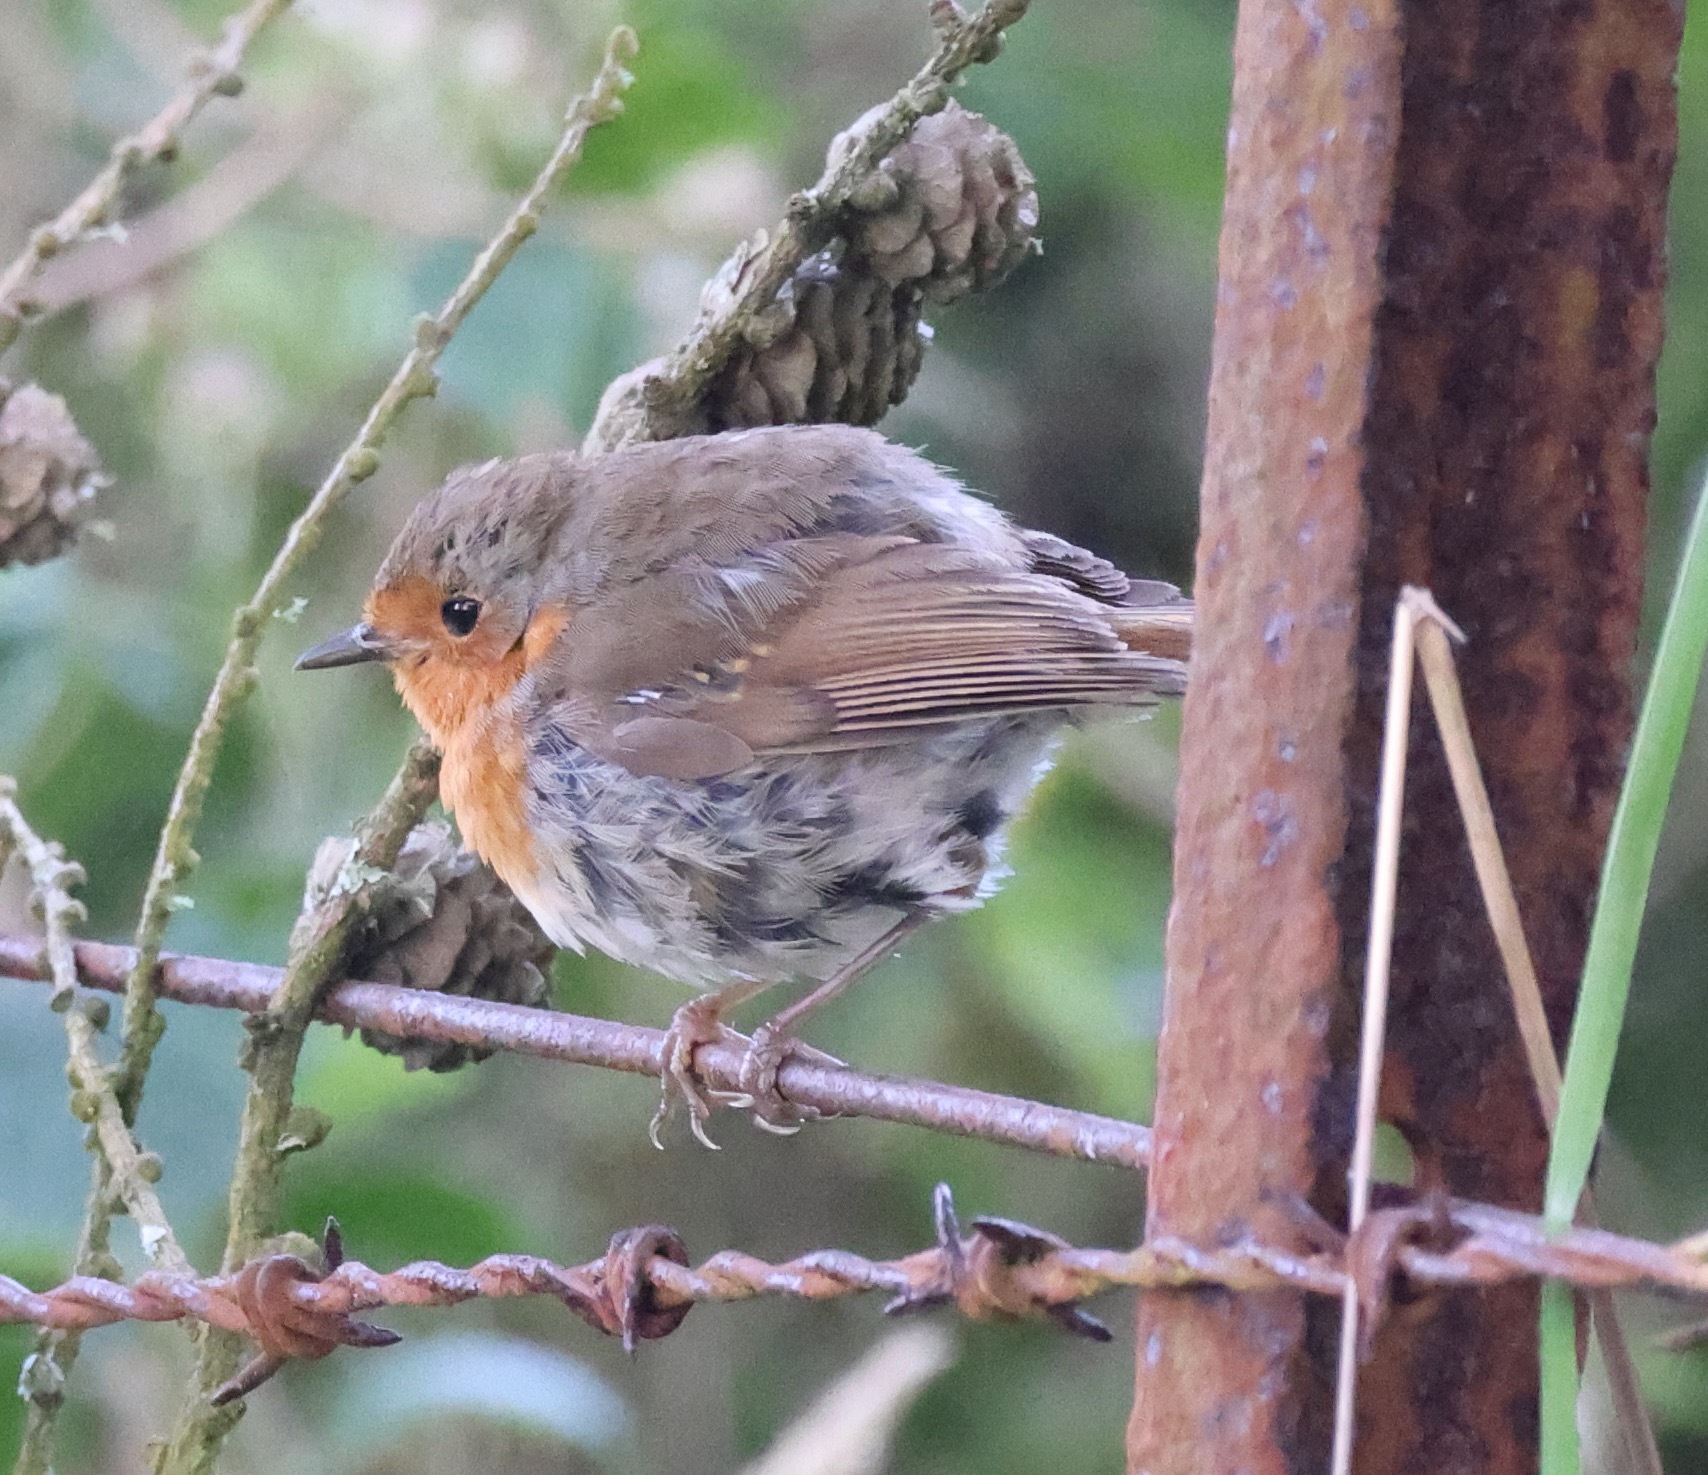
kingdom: Animalia
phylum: Chordata
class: Aves
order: Passeriformes
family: Muscicapidae
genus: Erithacus
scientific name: Erithacus rubecula
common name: European robin
